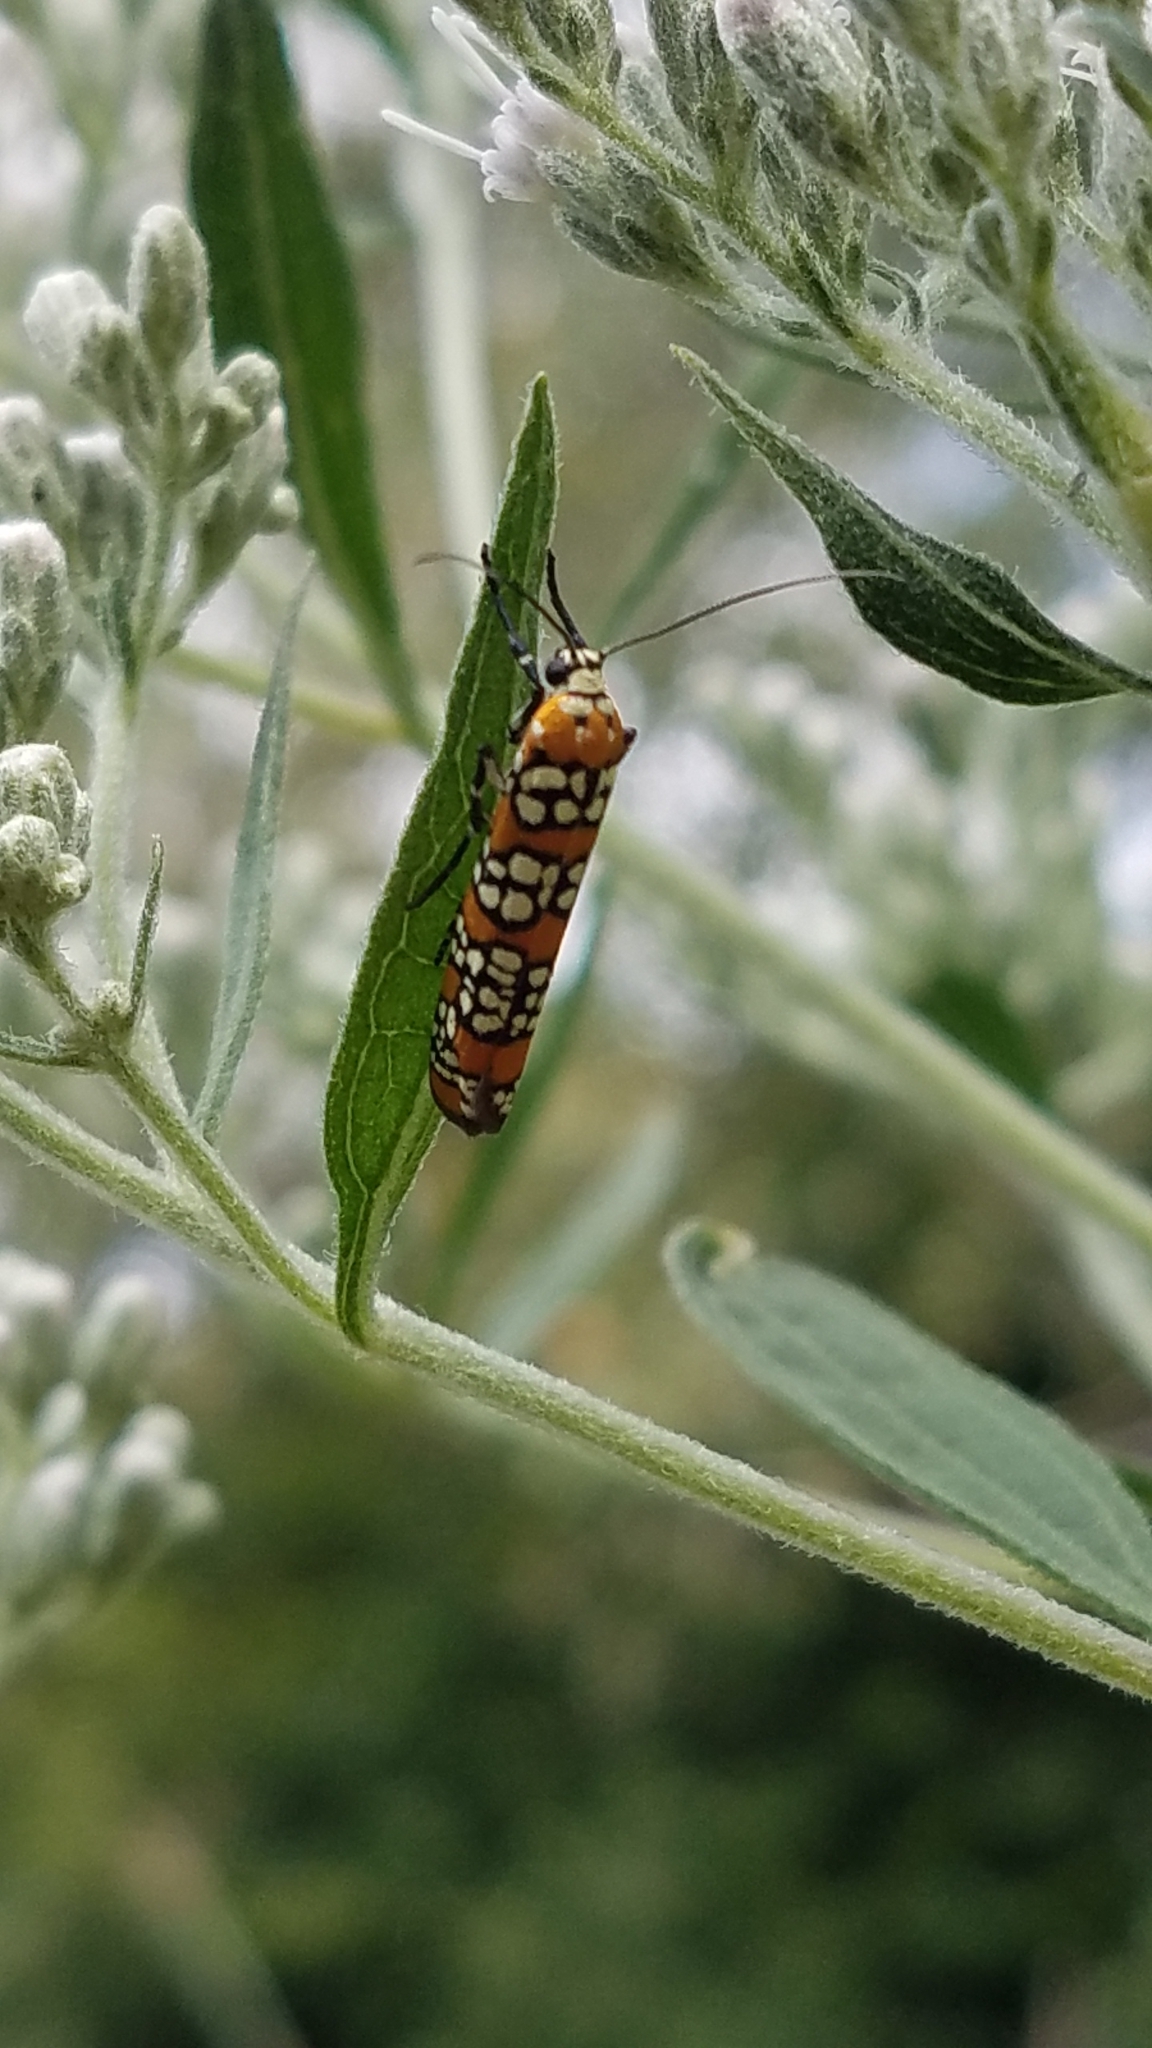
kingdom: Animalia
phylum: Arthropoda
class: Insecta
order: Lepidoptera
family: Attevidae
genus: Atteva
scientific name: Atteva punctella
